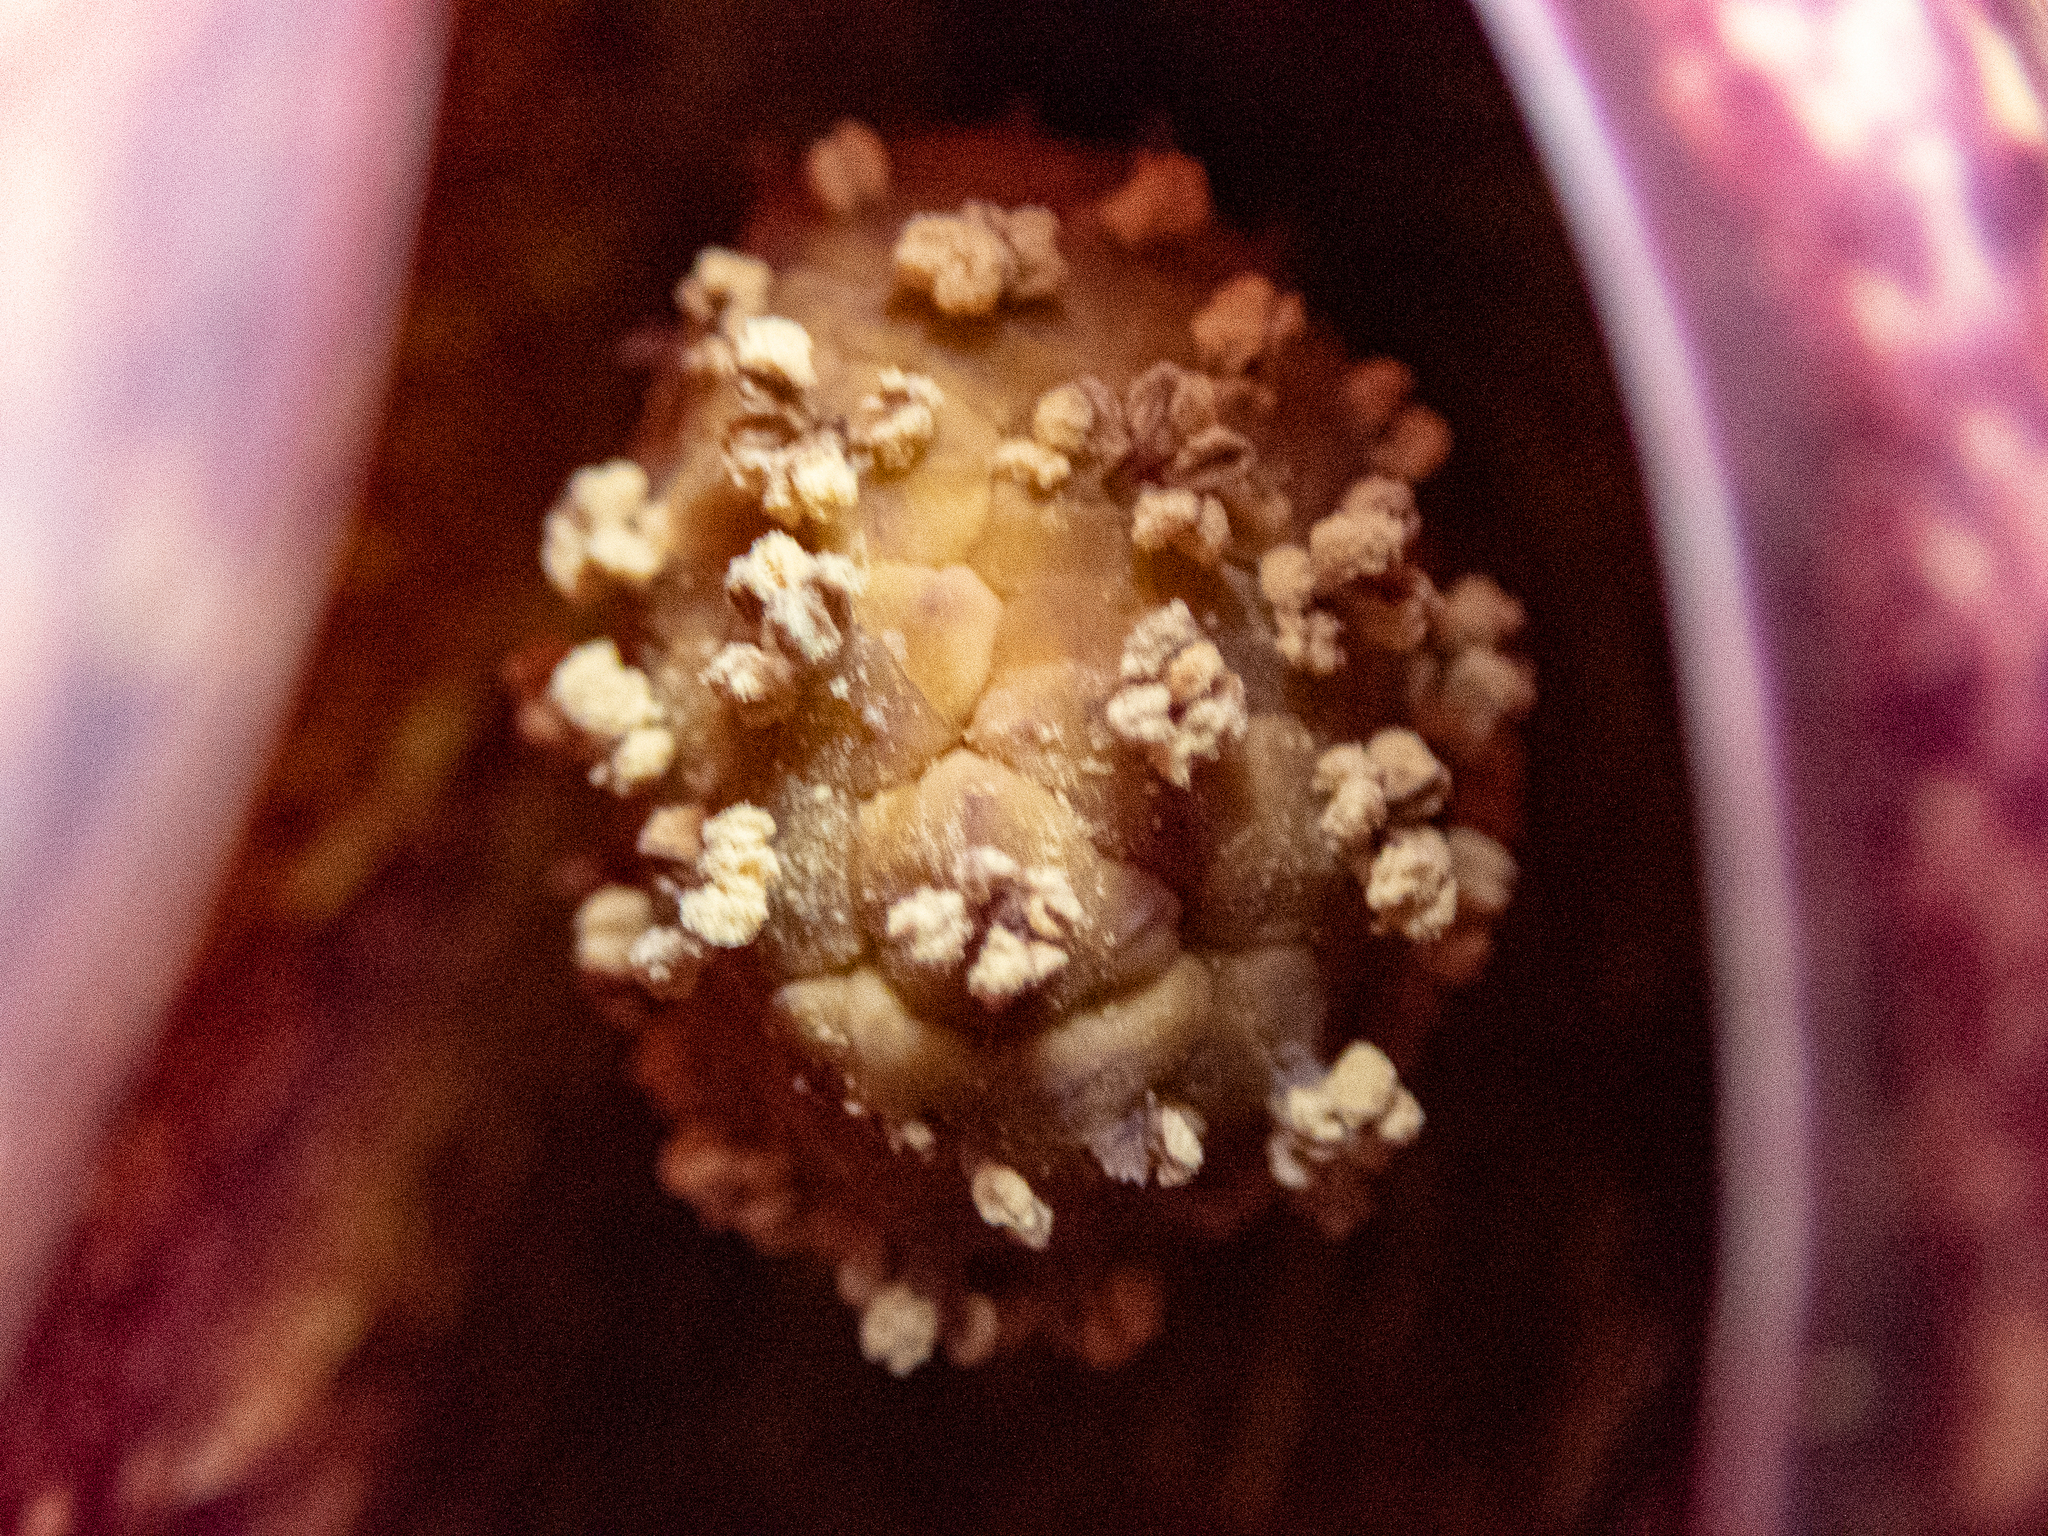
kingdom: Plantae
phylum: Tracheophyta
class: Liliopsida
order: Alismatales
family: Araceae
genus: Symplocarpus
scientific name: Symplocarpus foetidus
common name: Eastern skunk cabbage
